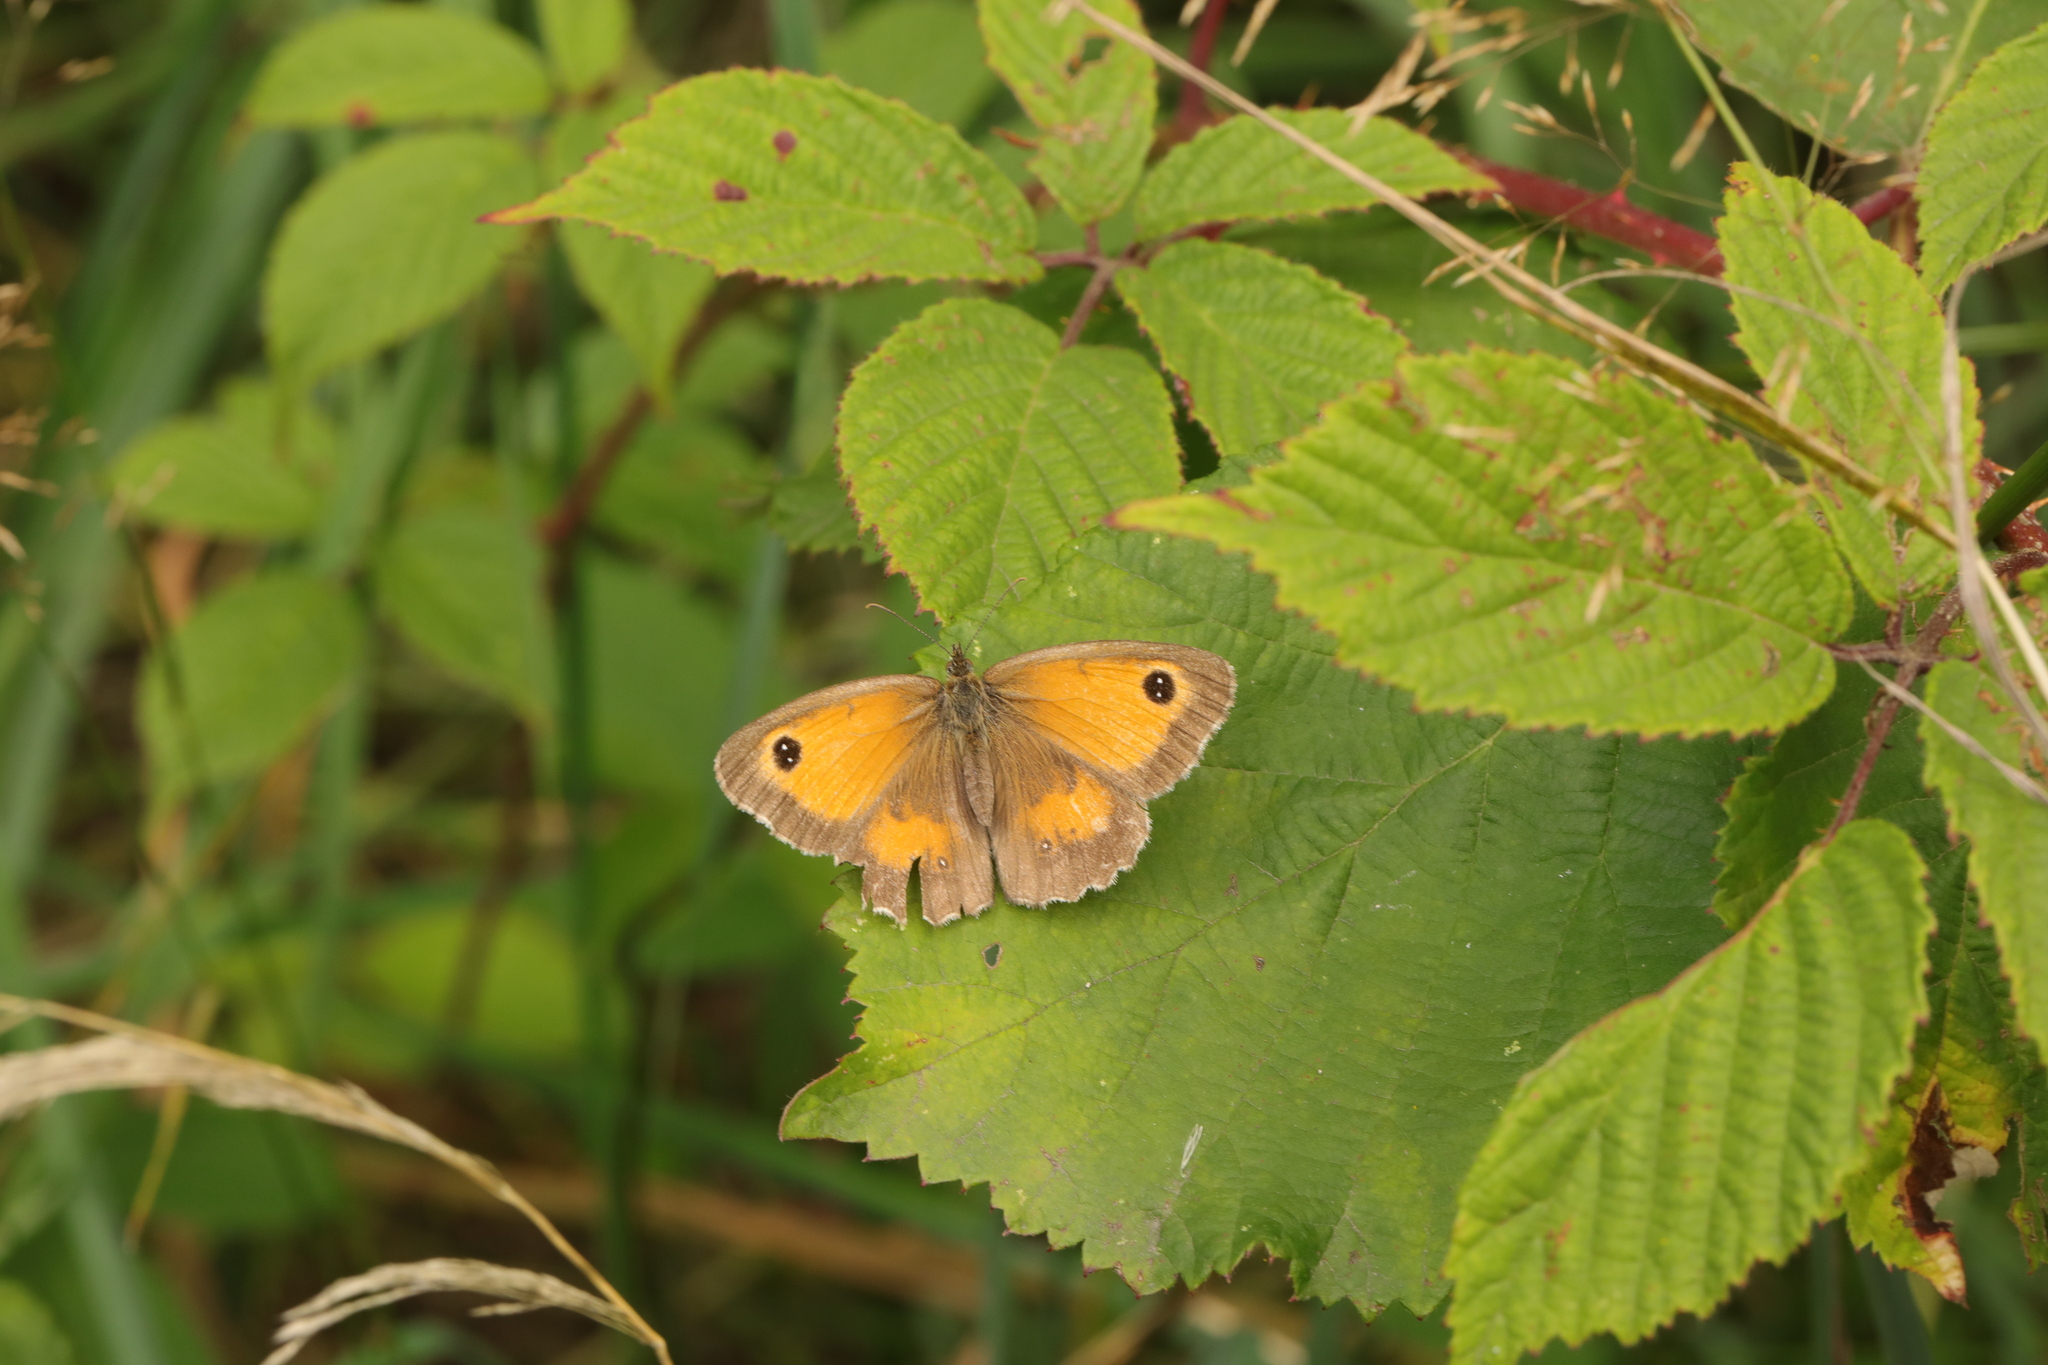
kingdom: Animalia
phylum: Arthropoda
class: Insecta
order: Lepidoptera
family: Nymphalidae
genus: Pyronia
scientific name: Pyronia tithonus
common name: Gatekeeper
